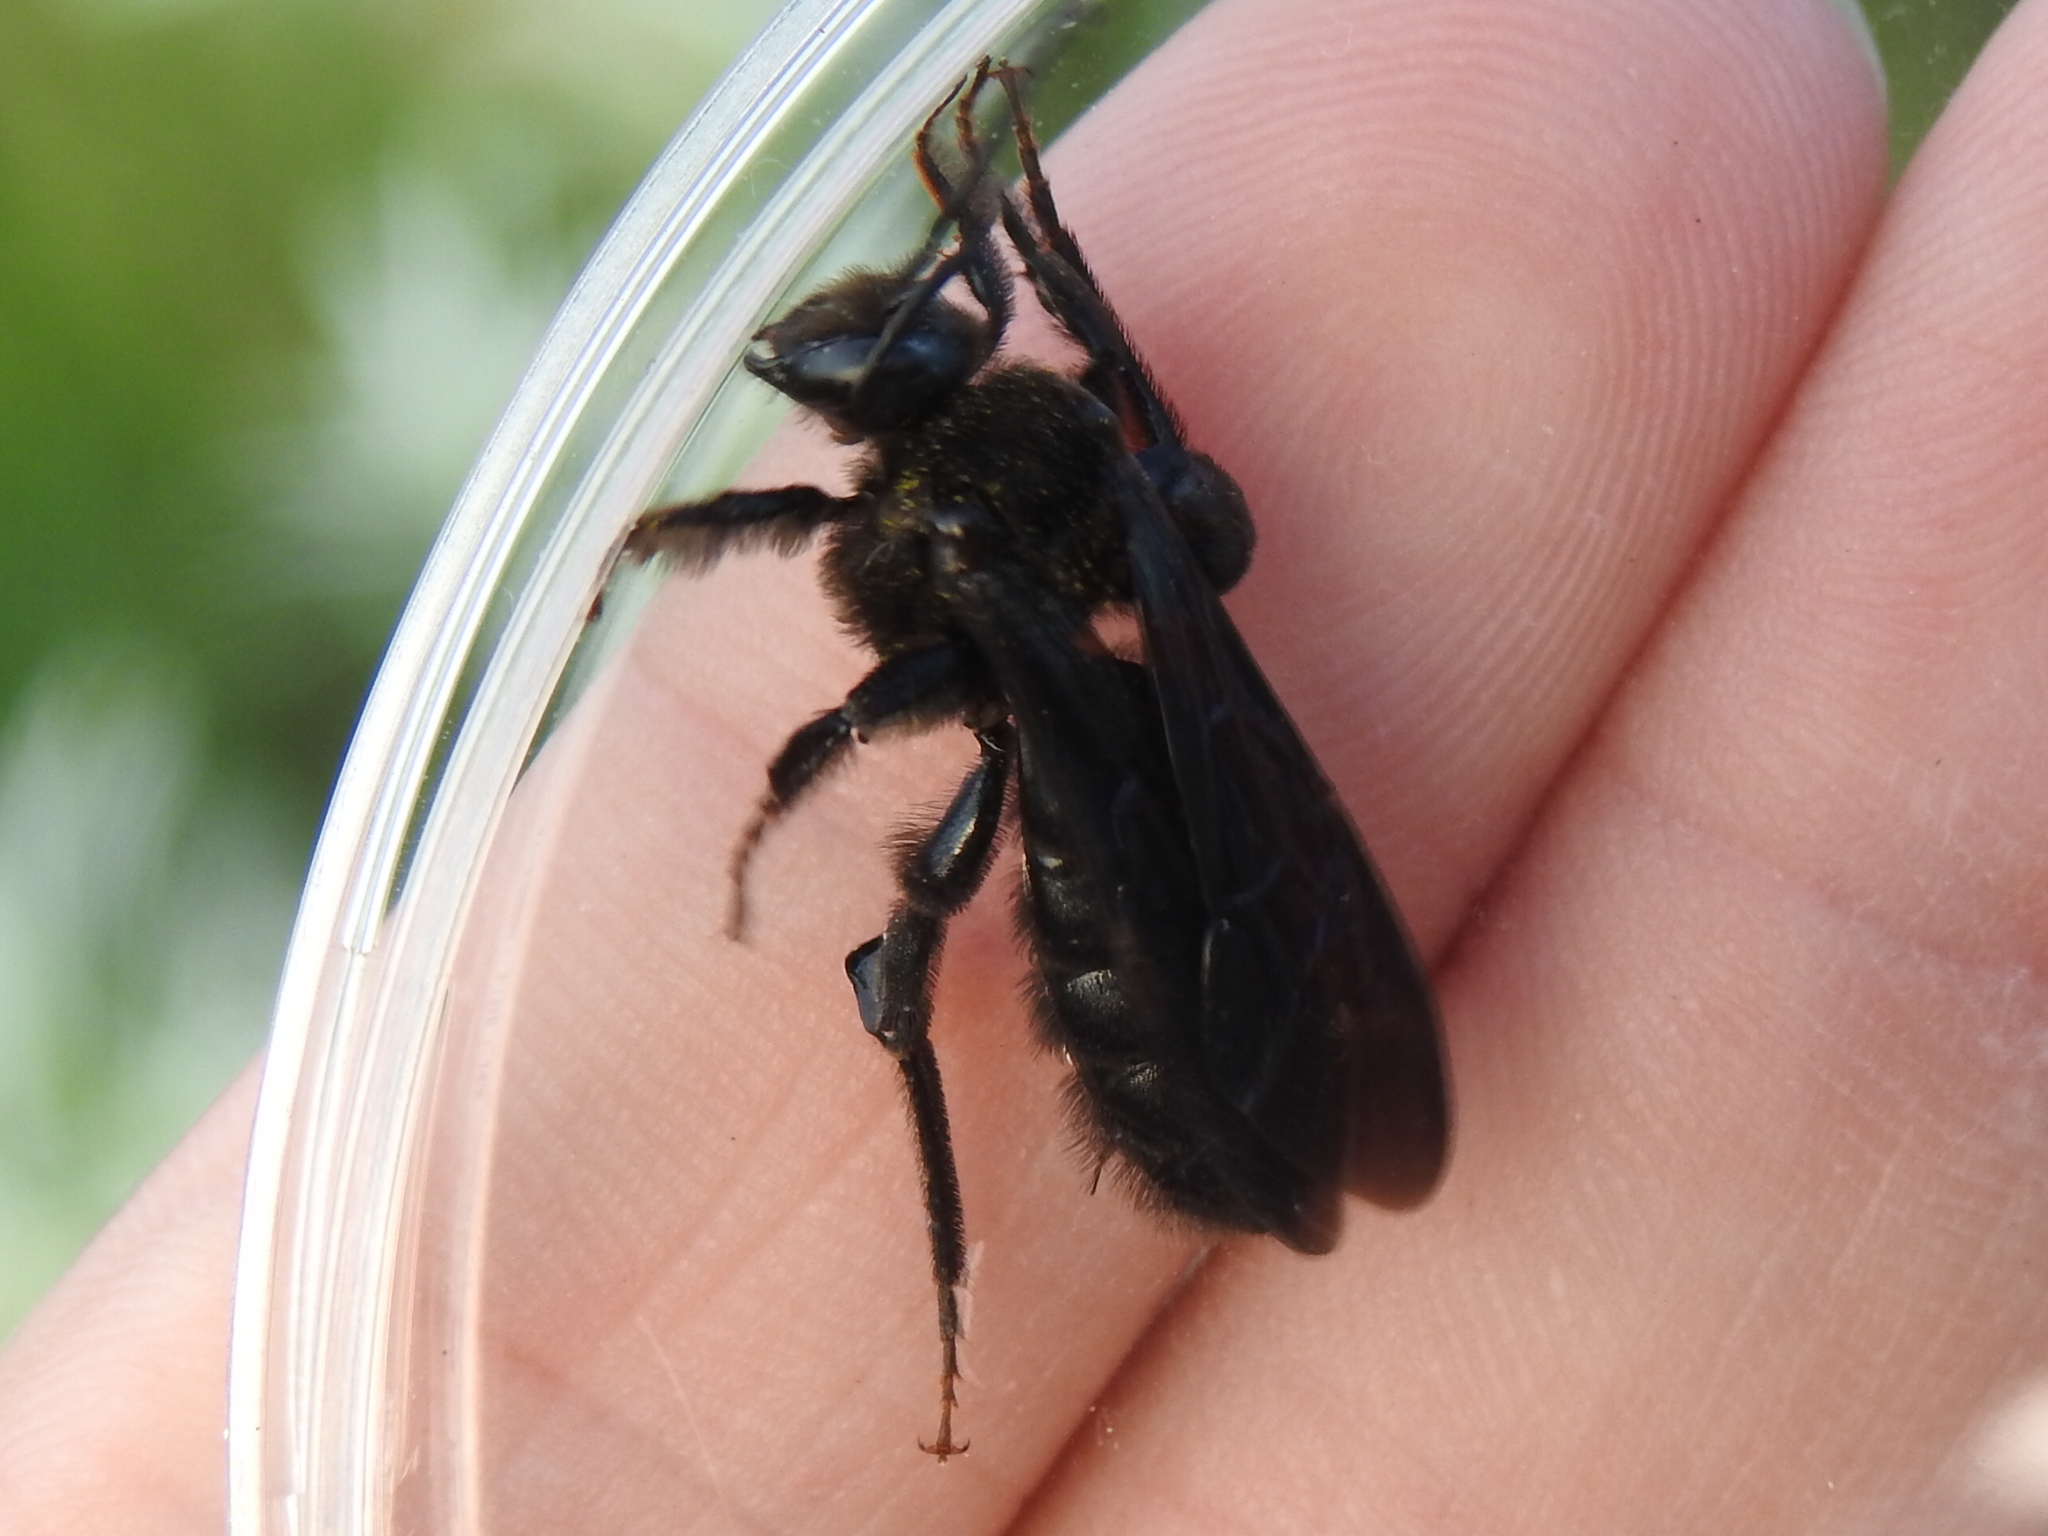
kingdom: Animalia
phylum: Arthropoda
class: Insecta
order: Hymenoptera
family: Halictidae
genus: Dieunomia
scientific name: Dieunomia heteropoda
